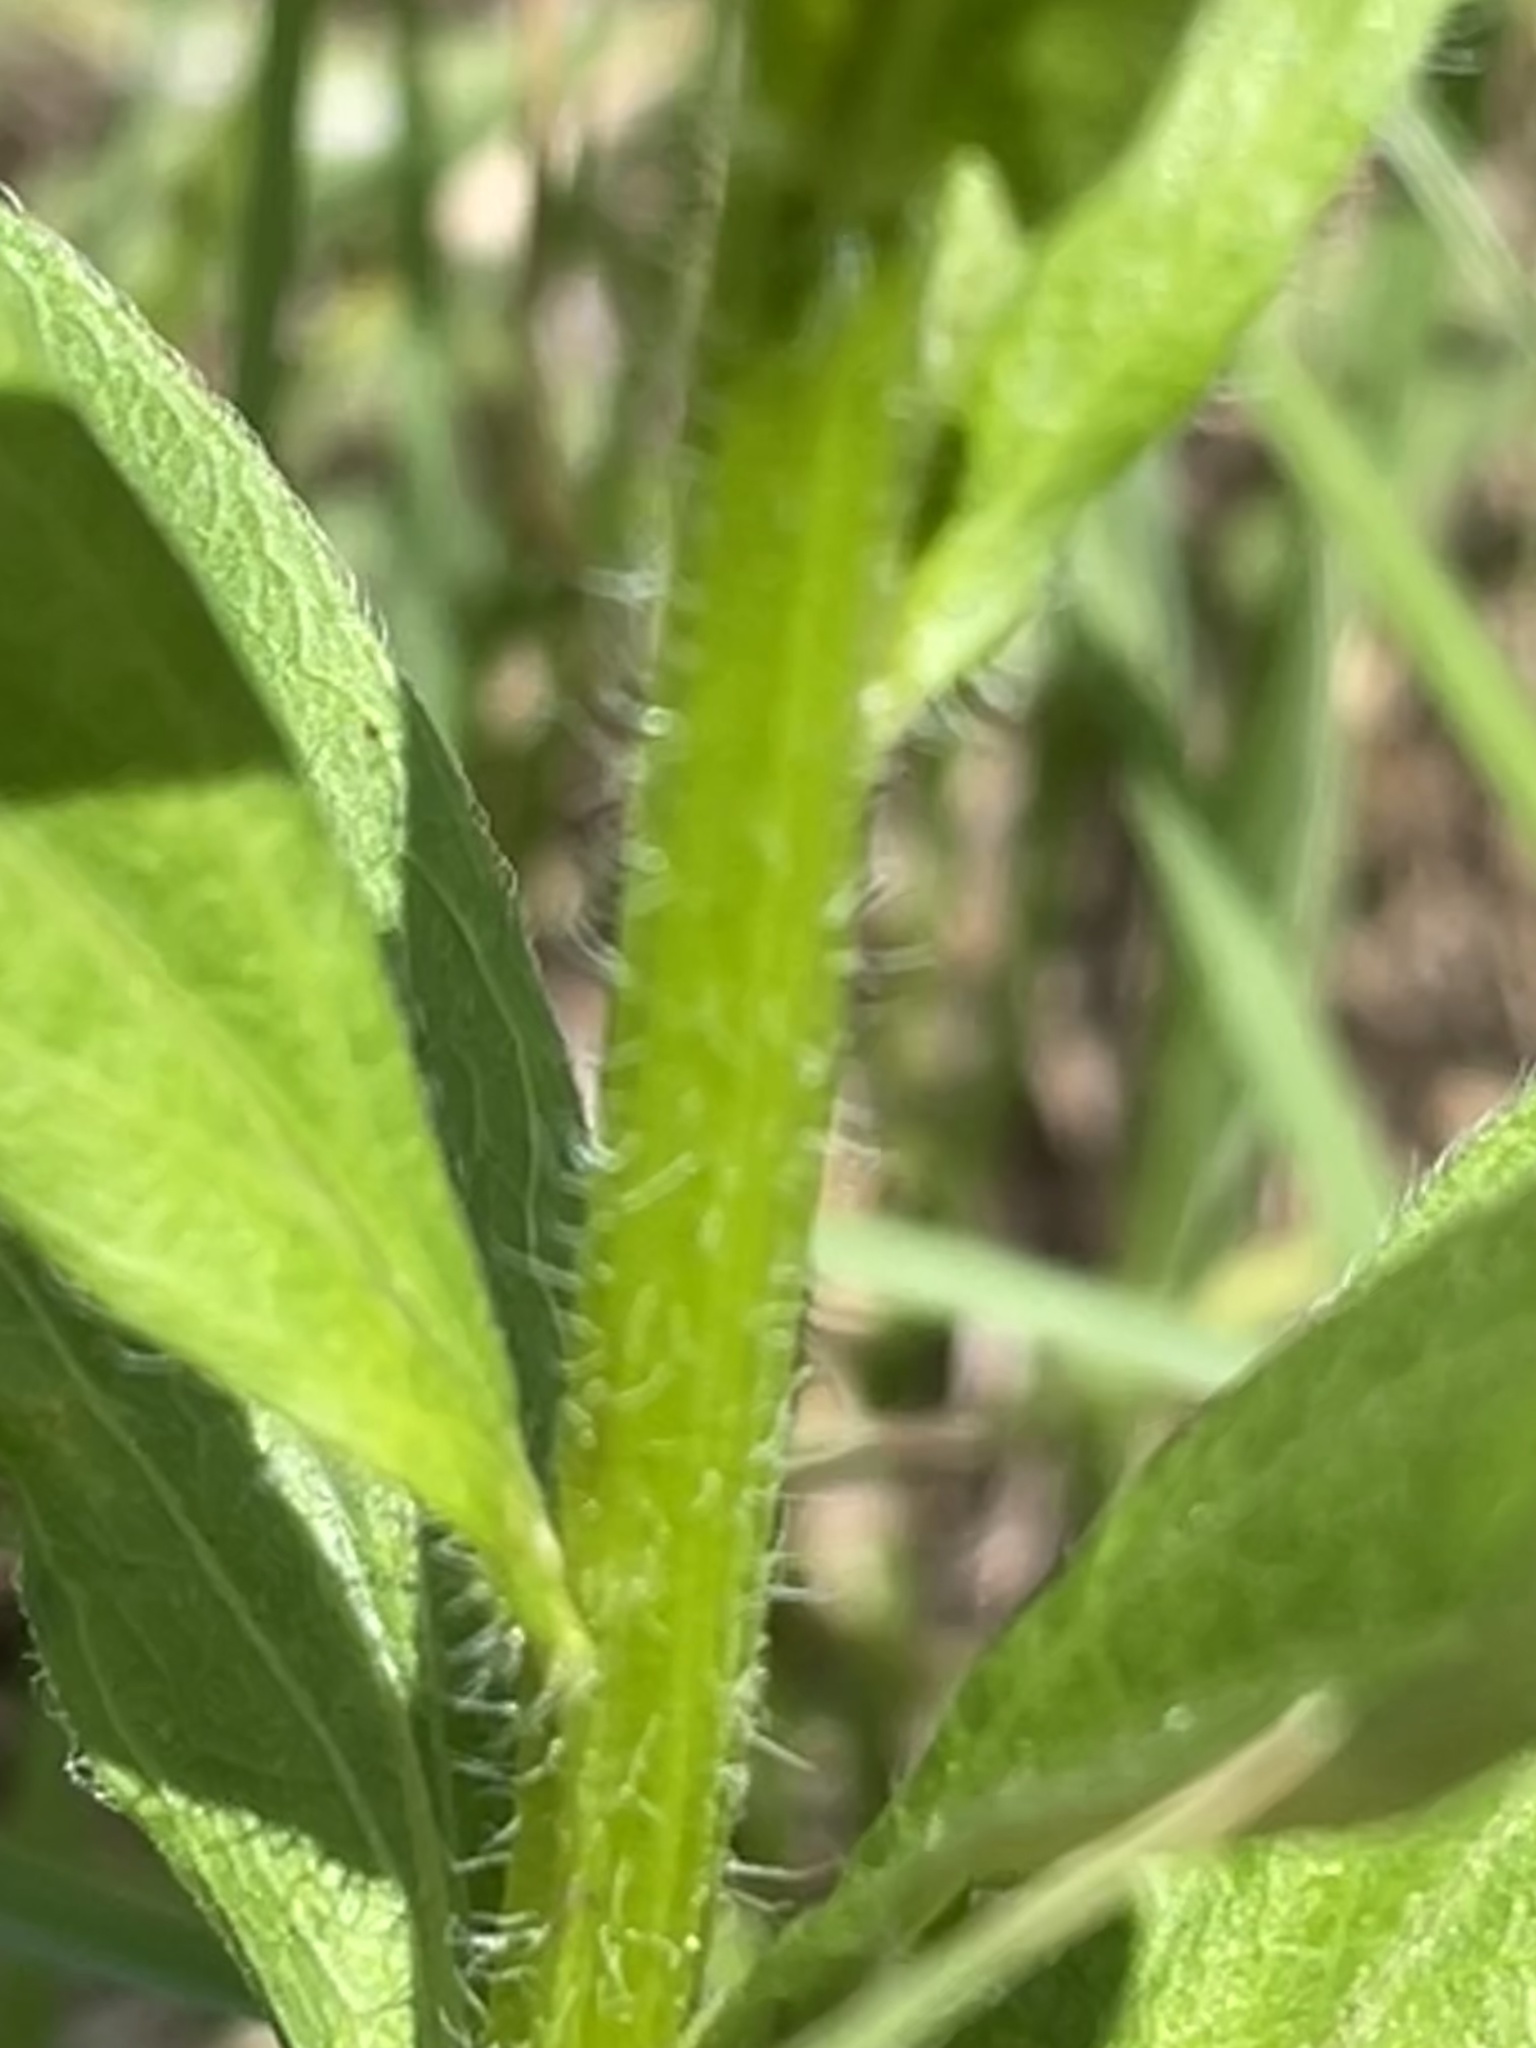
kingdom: Plantae
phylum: Tracheophyta
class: Magnoliopsida
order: Asterales
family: Asteraceae
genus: Erigeron
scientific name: Erigeron annuus
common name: Tall fleabane
